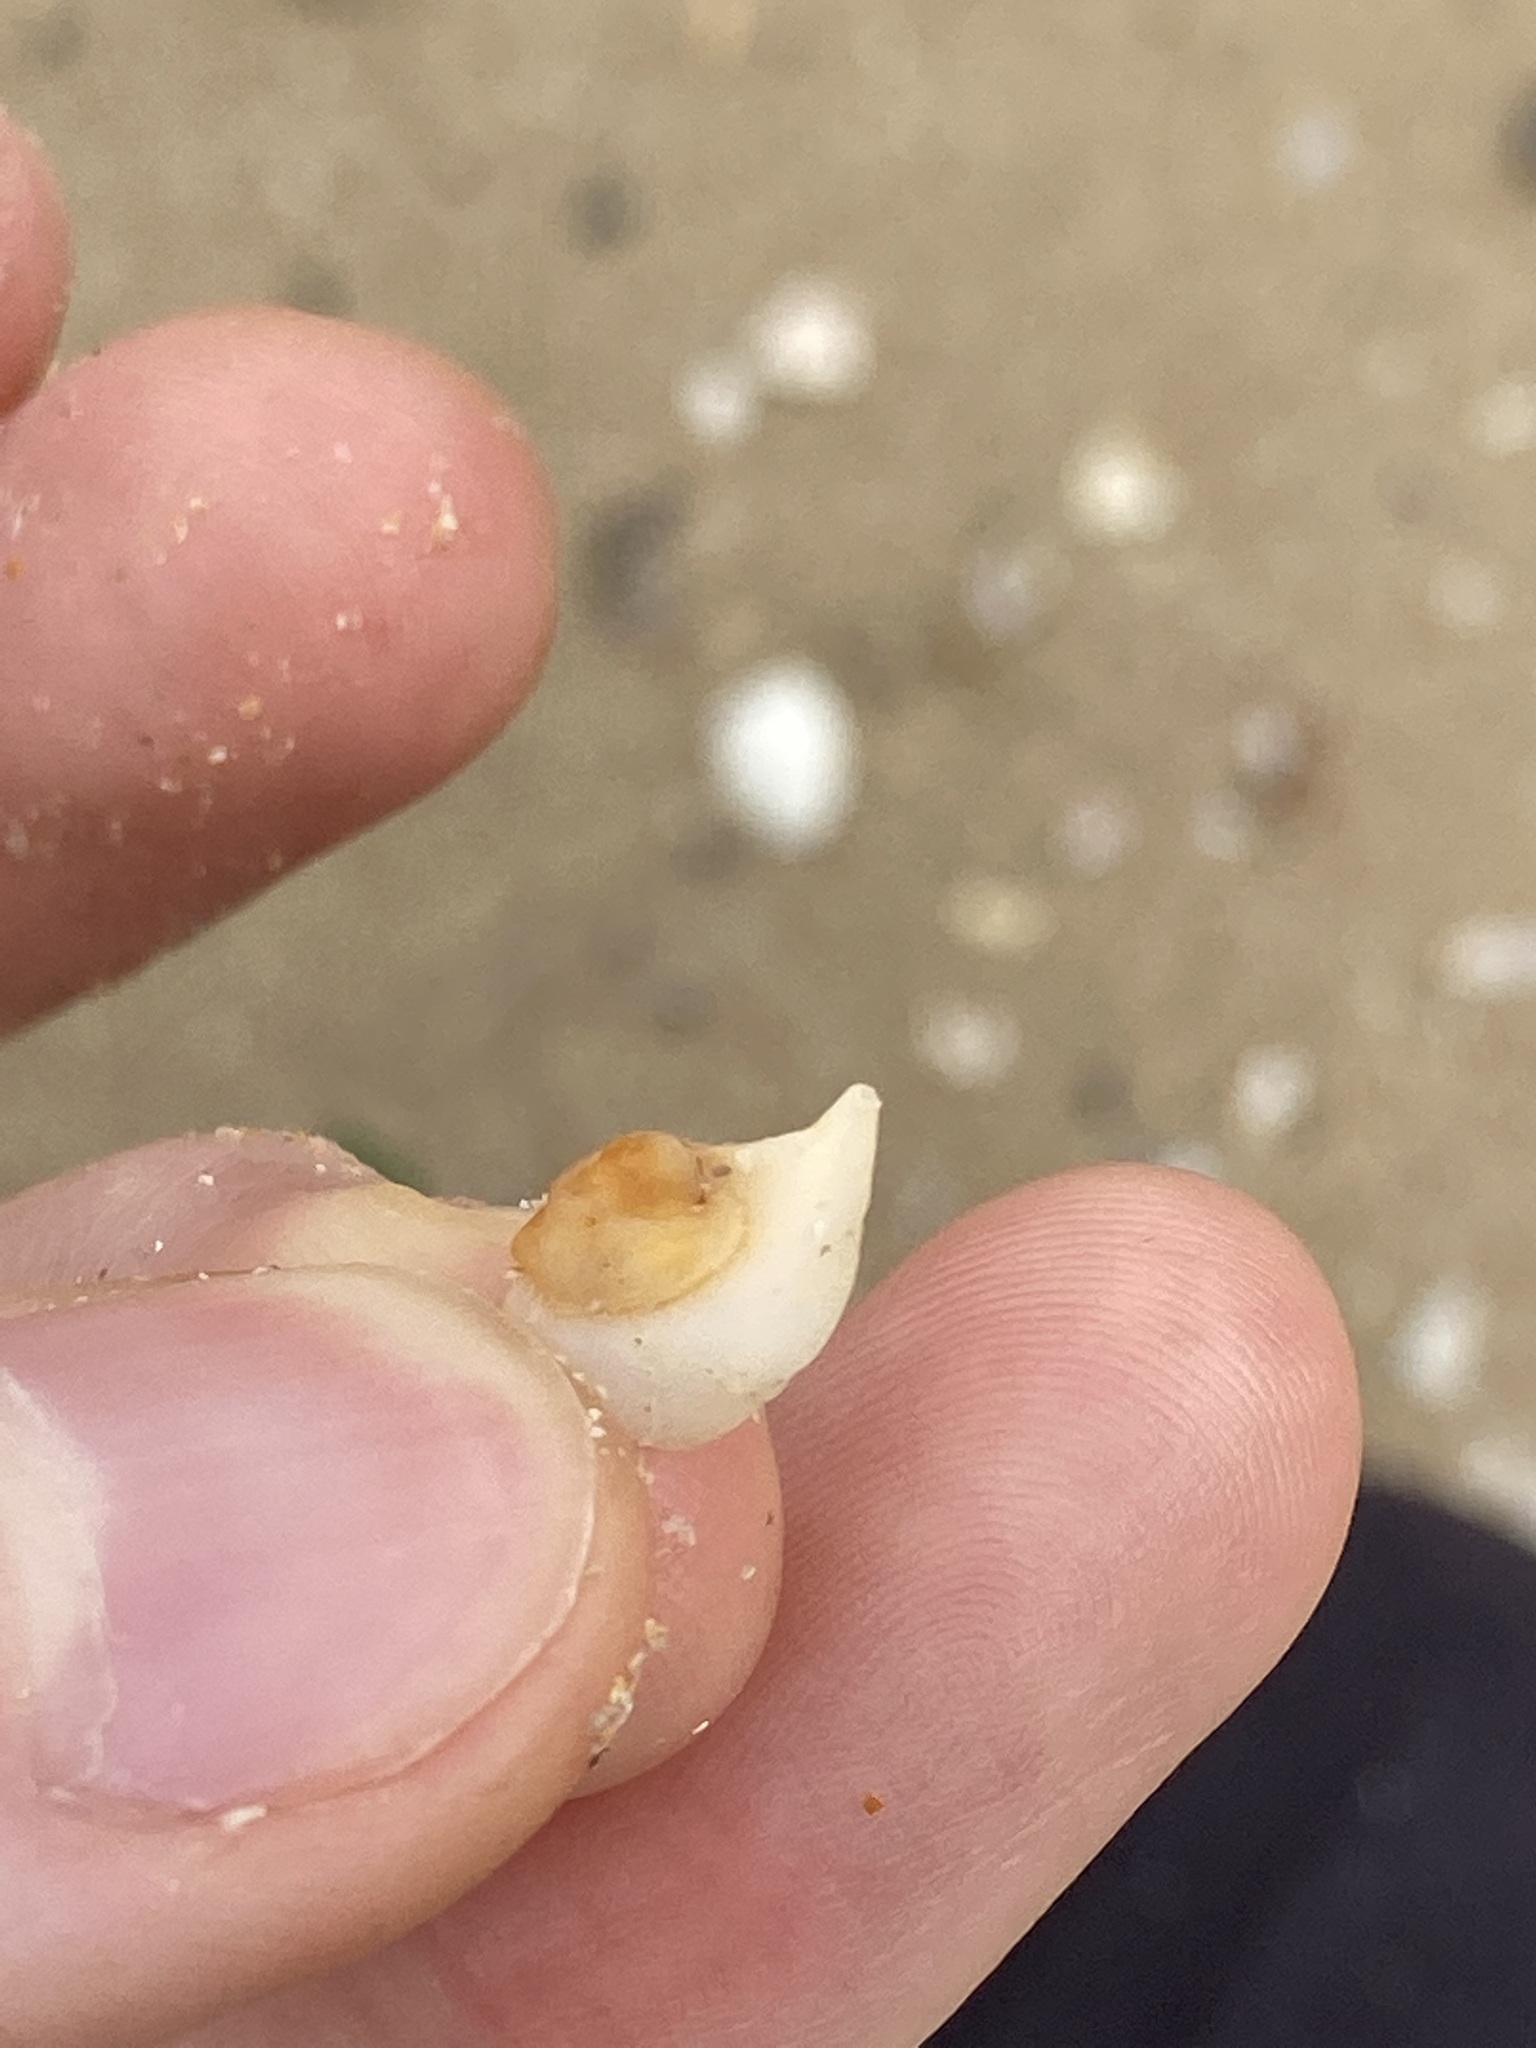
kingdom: Animalia
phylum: Mollusca
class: Gastropoda
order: Littorinimorpha
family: Naticidae
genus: Neverita
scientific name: Neverita didyma
